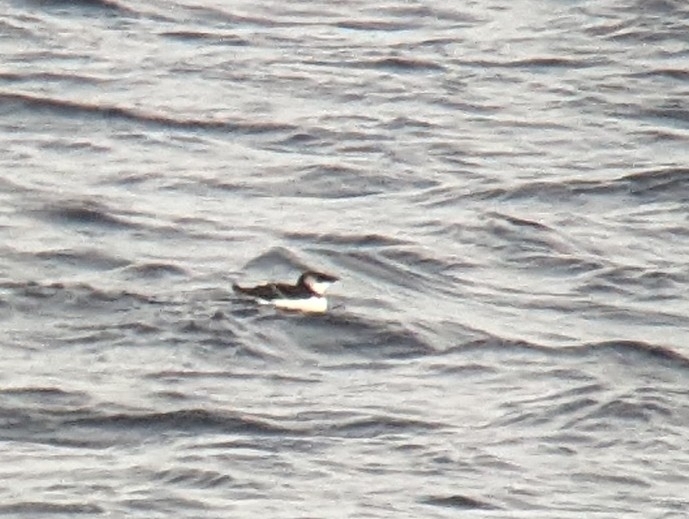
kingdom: Animalia
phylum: Chordata
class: Aves
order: Charadriiformes
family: Alcidae
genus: Alca
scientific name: Alca torda
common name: Razorbill
